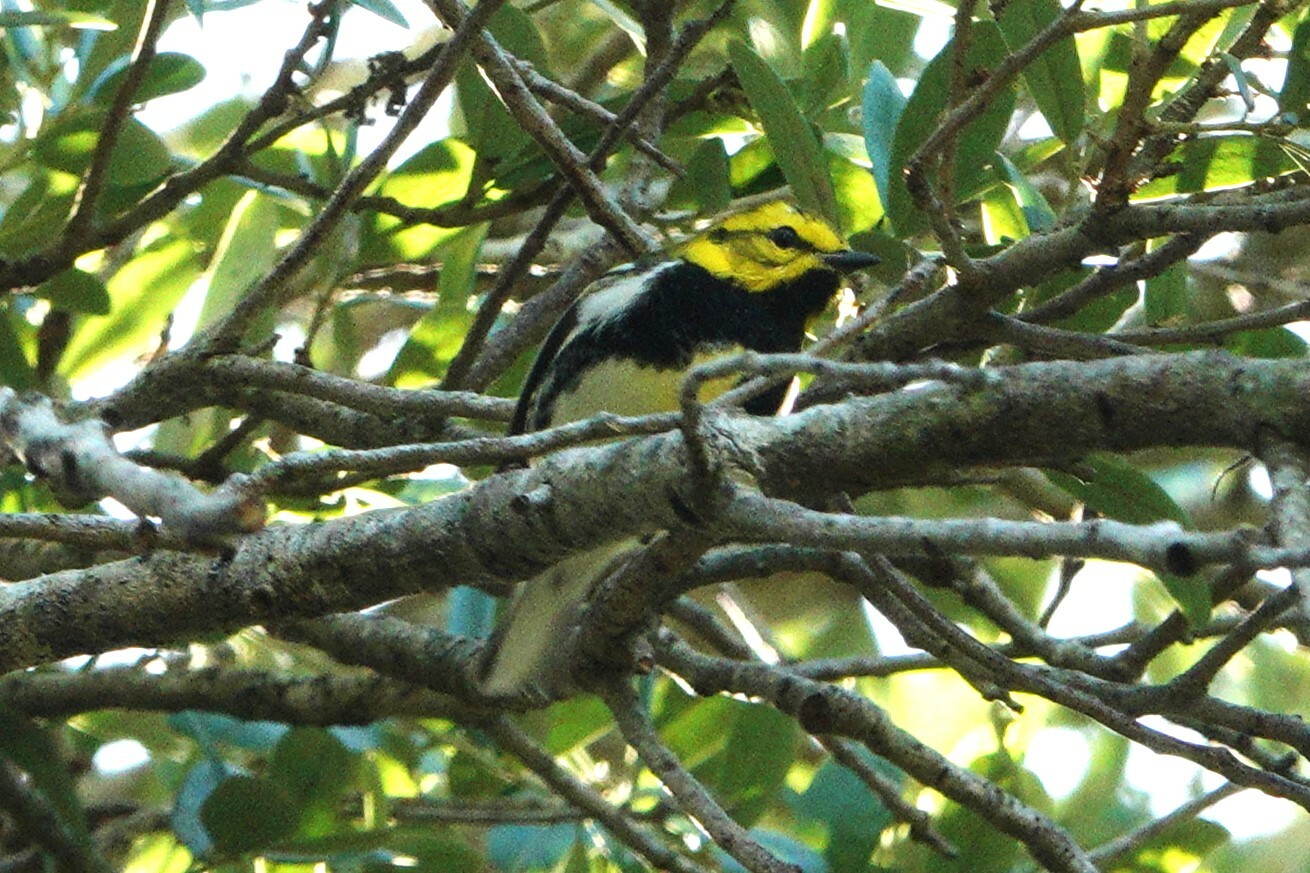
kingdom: Animalia
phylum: Chordata
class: Aves
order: Passeriformes
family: Parulidae
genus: Setophaga
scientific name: Setophaga virens
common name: Black-throated green warbler
